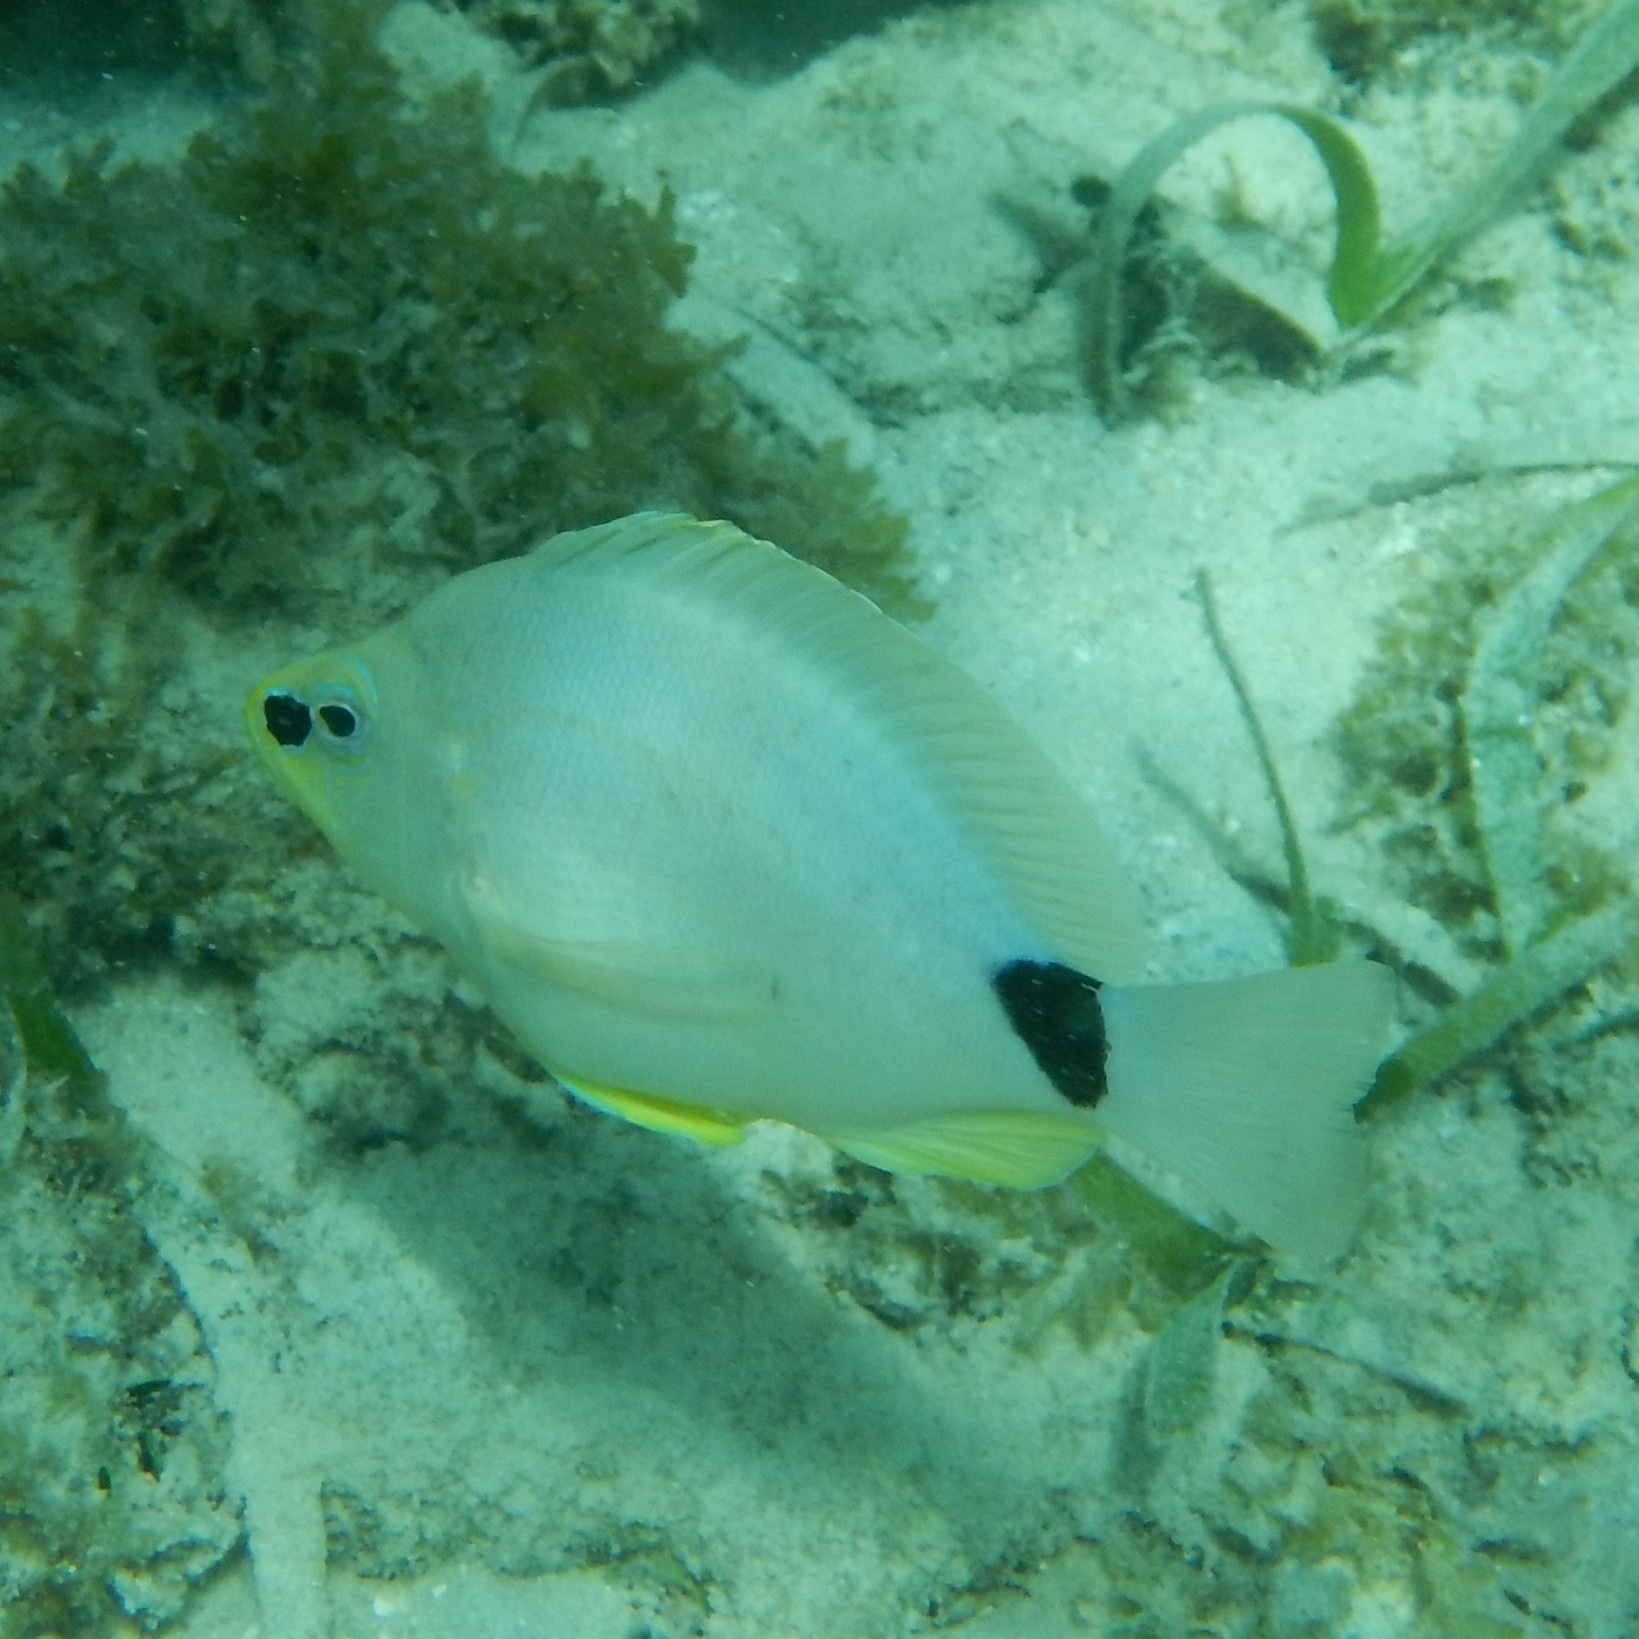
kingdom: Animalia
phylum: Chordata
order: Perciformes
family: Serranidae
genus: Hypoplectrus
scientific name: Hypoplectrus unicolor
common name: Butter hamlet
